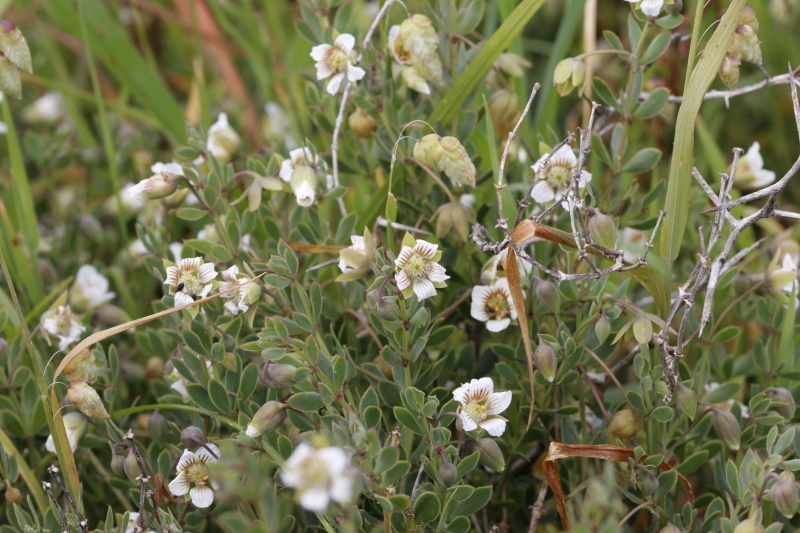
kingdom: Plantae
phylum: Tracheophyta
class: Magnoliopsida
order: Zygophyllales
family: Zygophyllaceae
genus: Roepera
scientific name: Roepera sessilifolia
